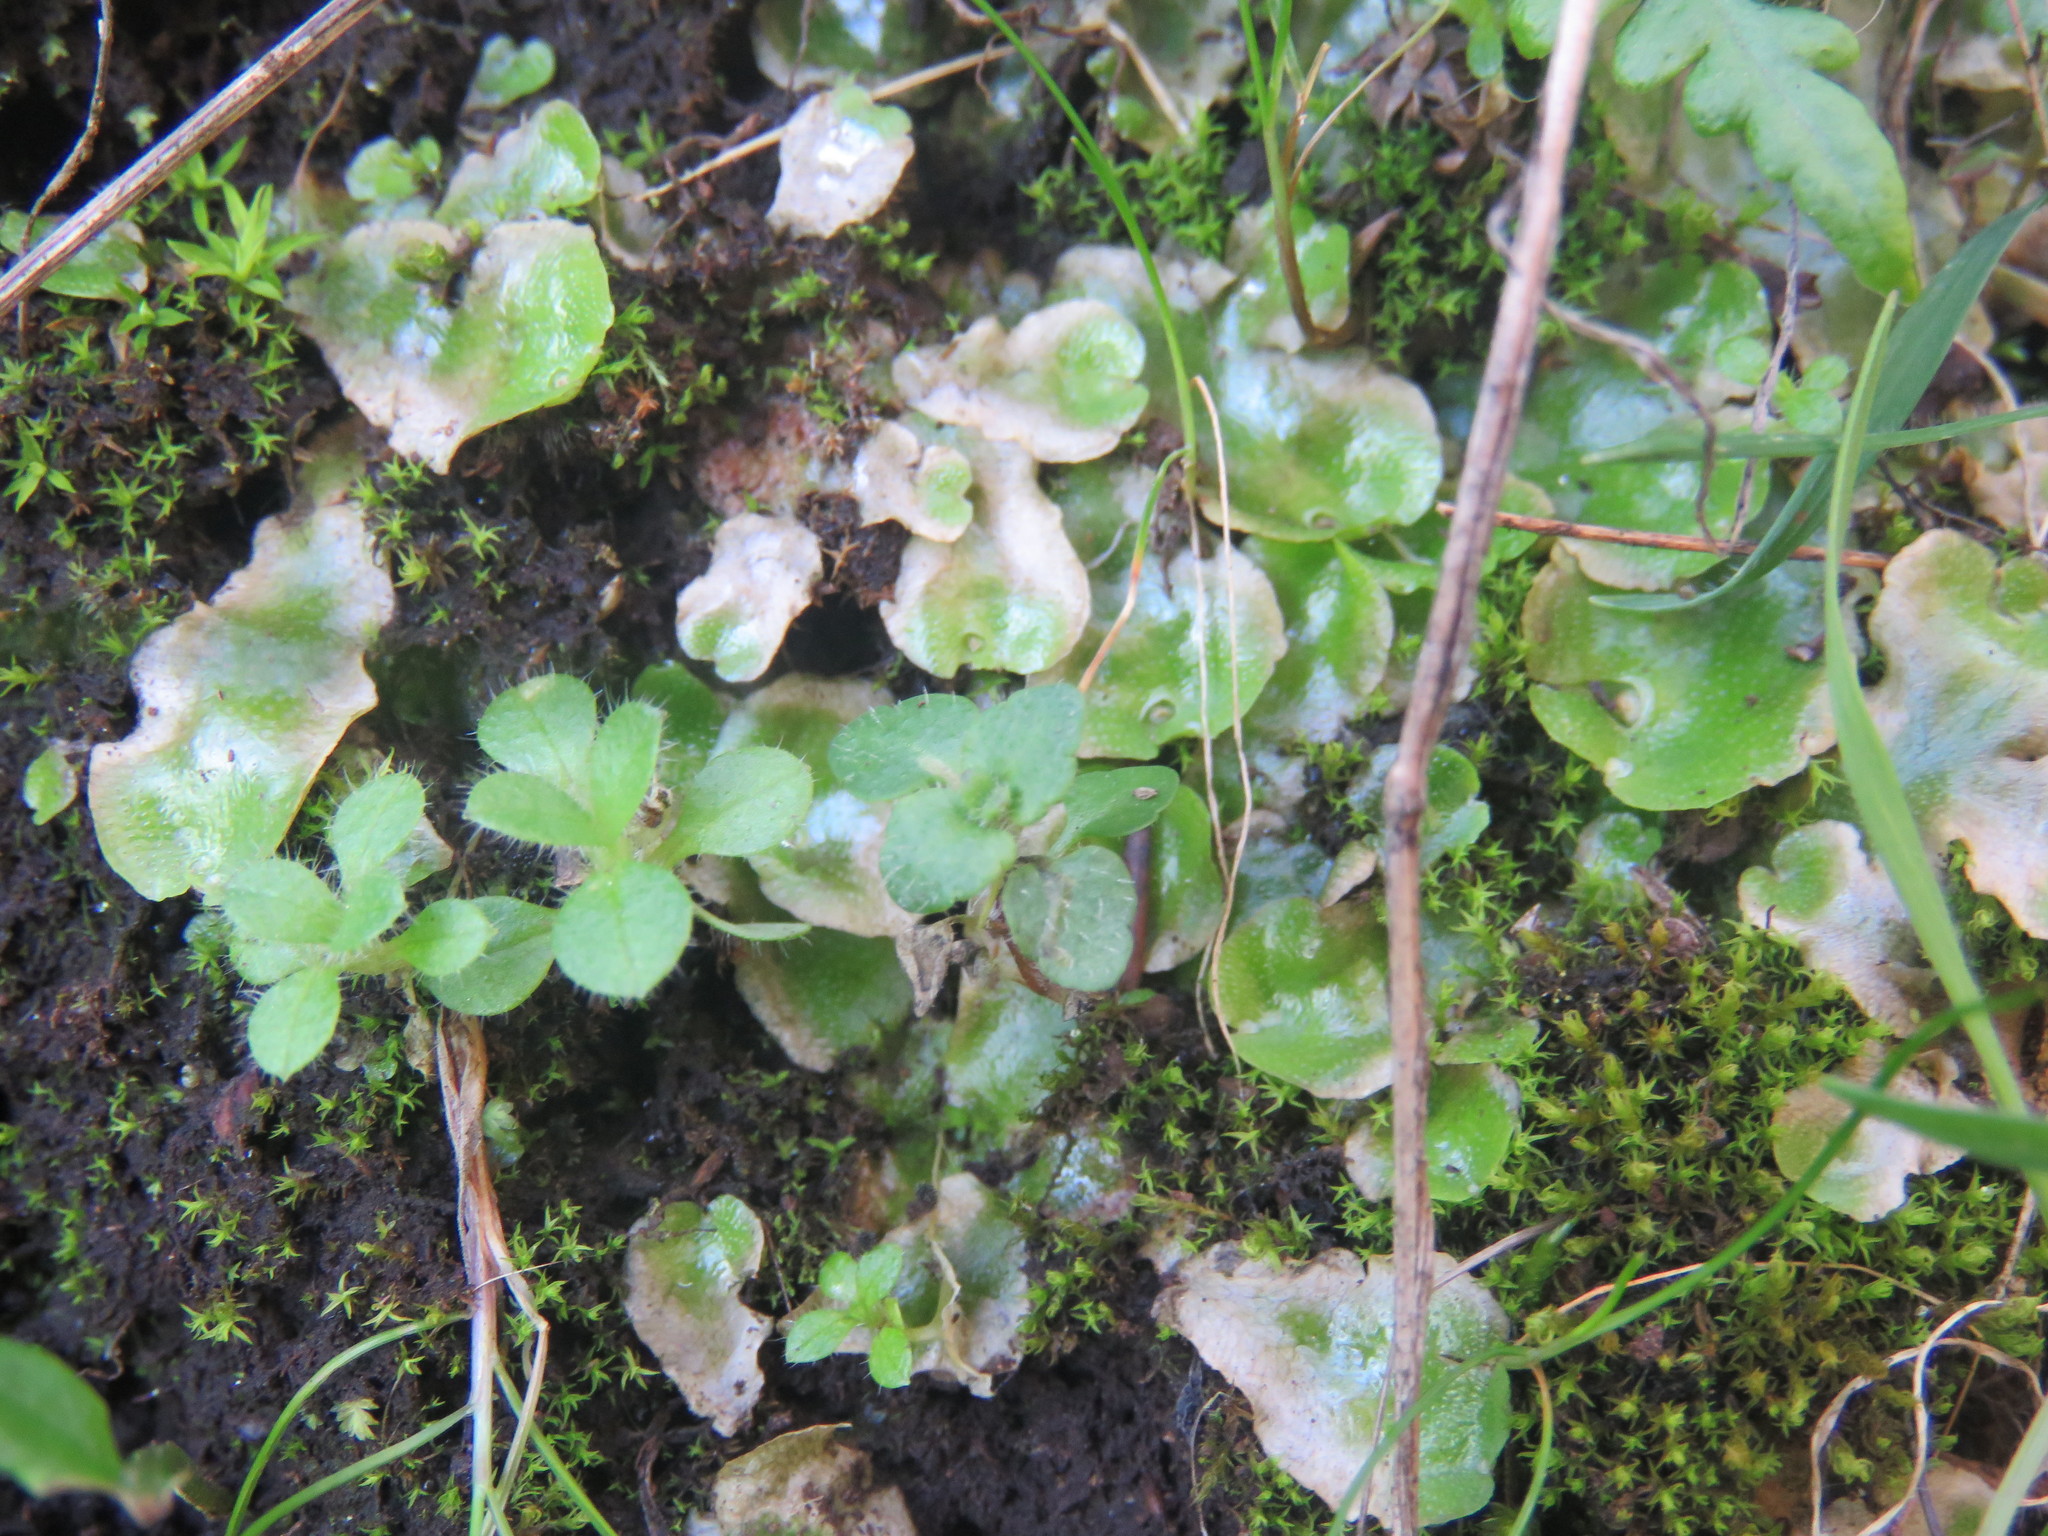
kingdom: Plantae
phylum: Marchantiophyta
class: Marchantiopsida
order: Lunulariales
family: Lunulariaceae
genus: Lunularia
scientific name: Lunularia cruciata
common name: Crescent-cup liverwort
